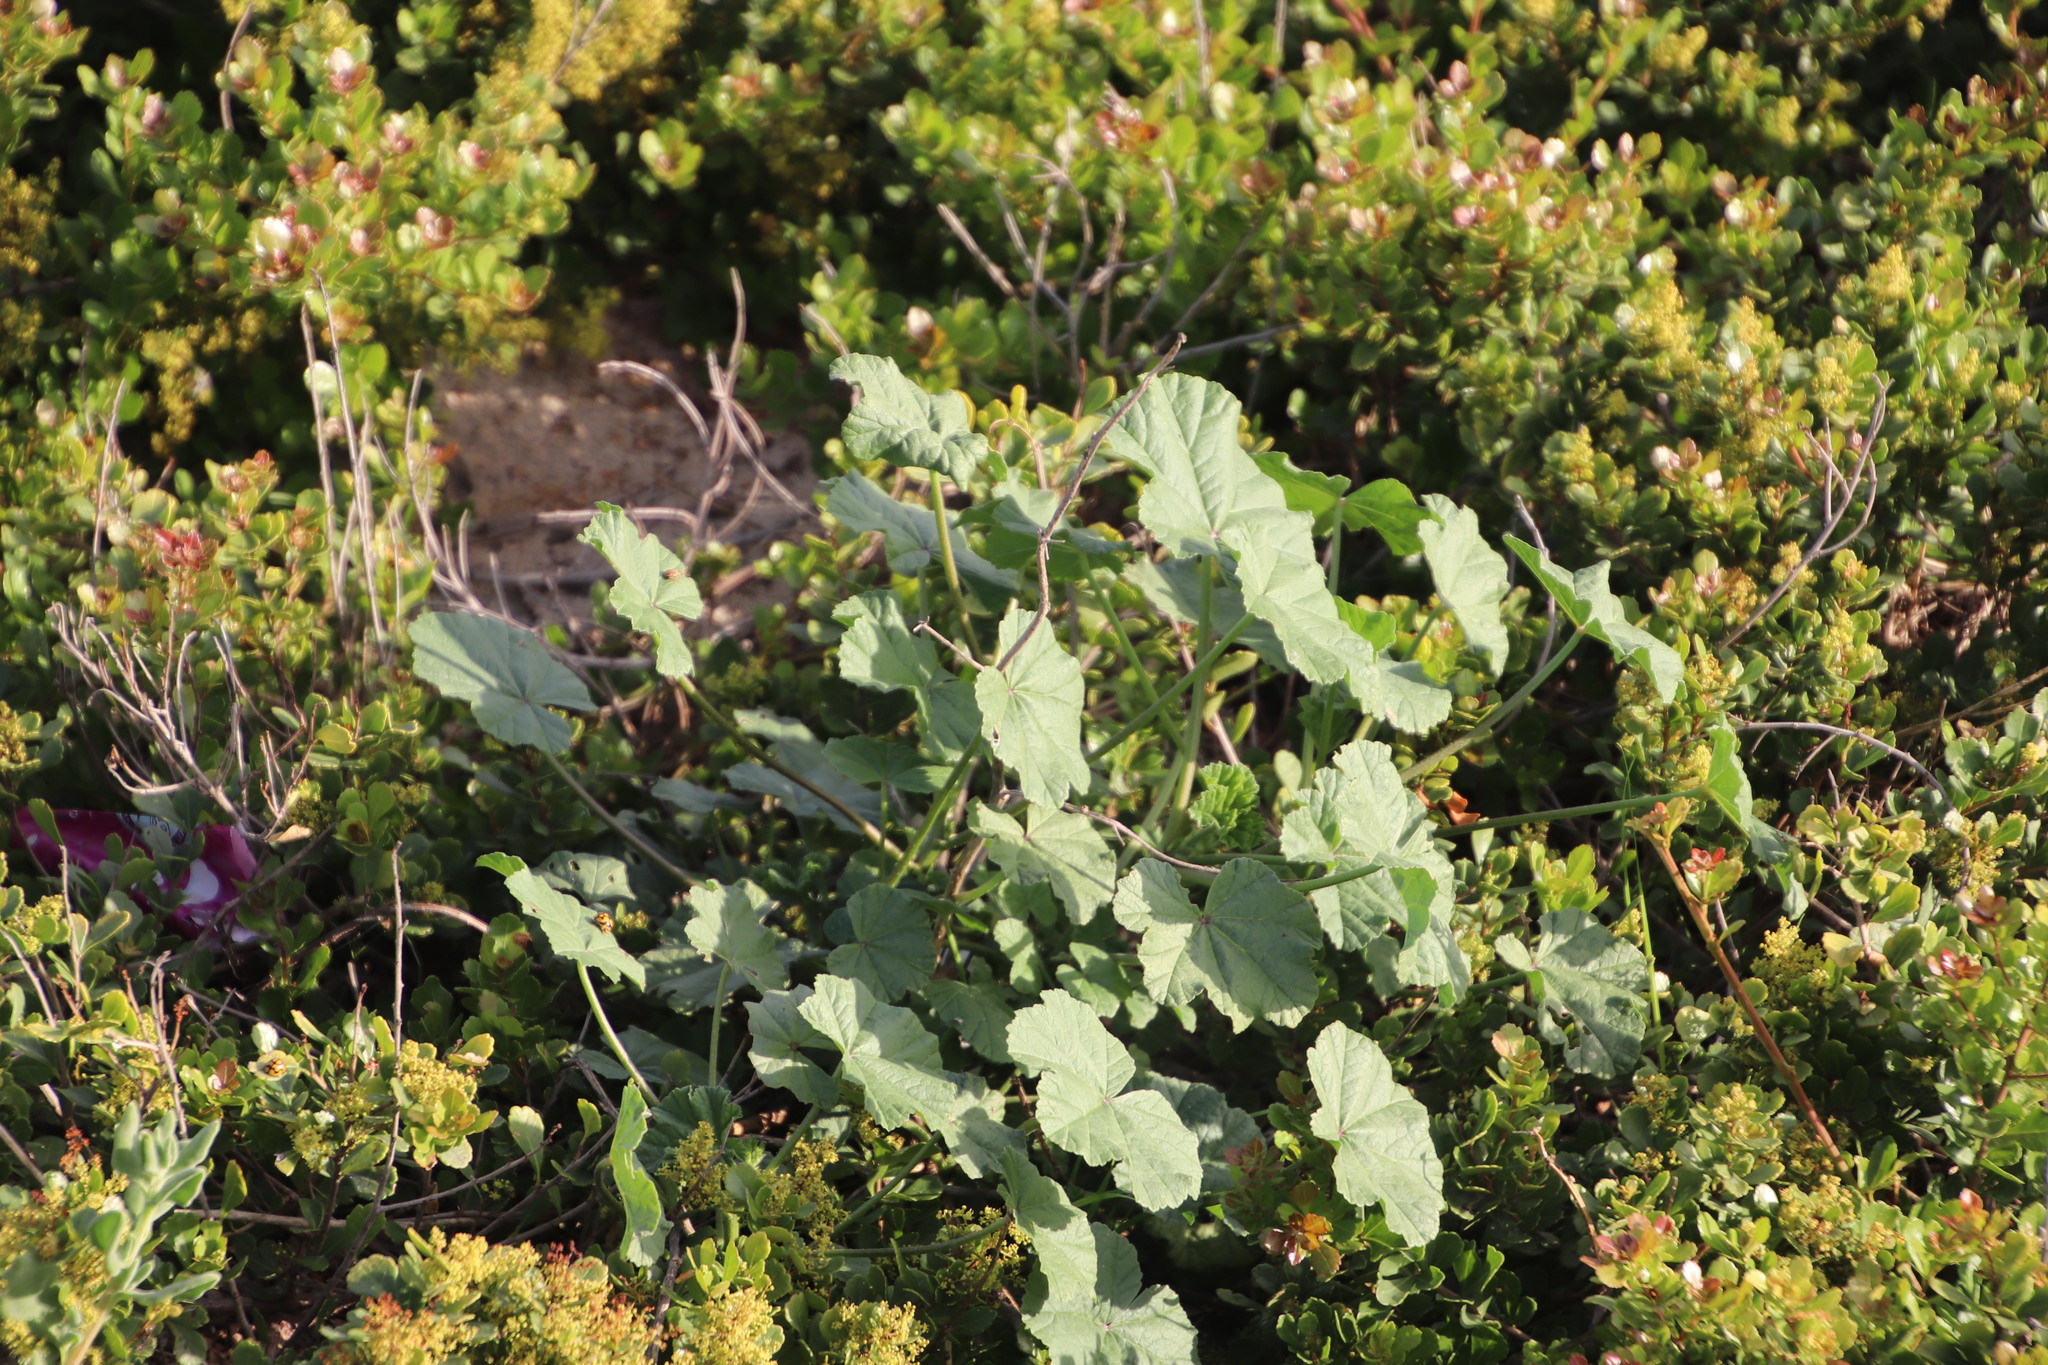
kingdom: Plantae
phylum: Tracheophyta
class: Magnoliopsida
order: Malvales
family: Malvaceae
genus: Malva
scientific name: Malva parviflora
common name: Least mallow
